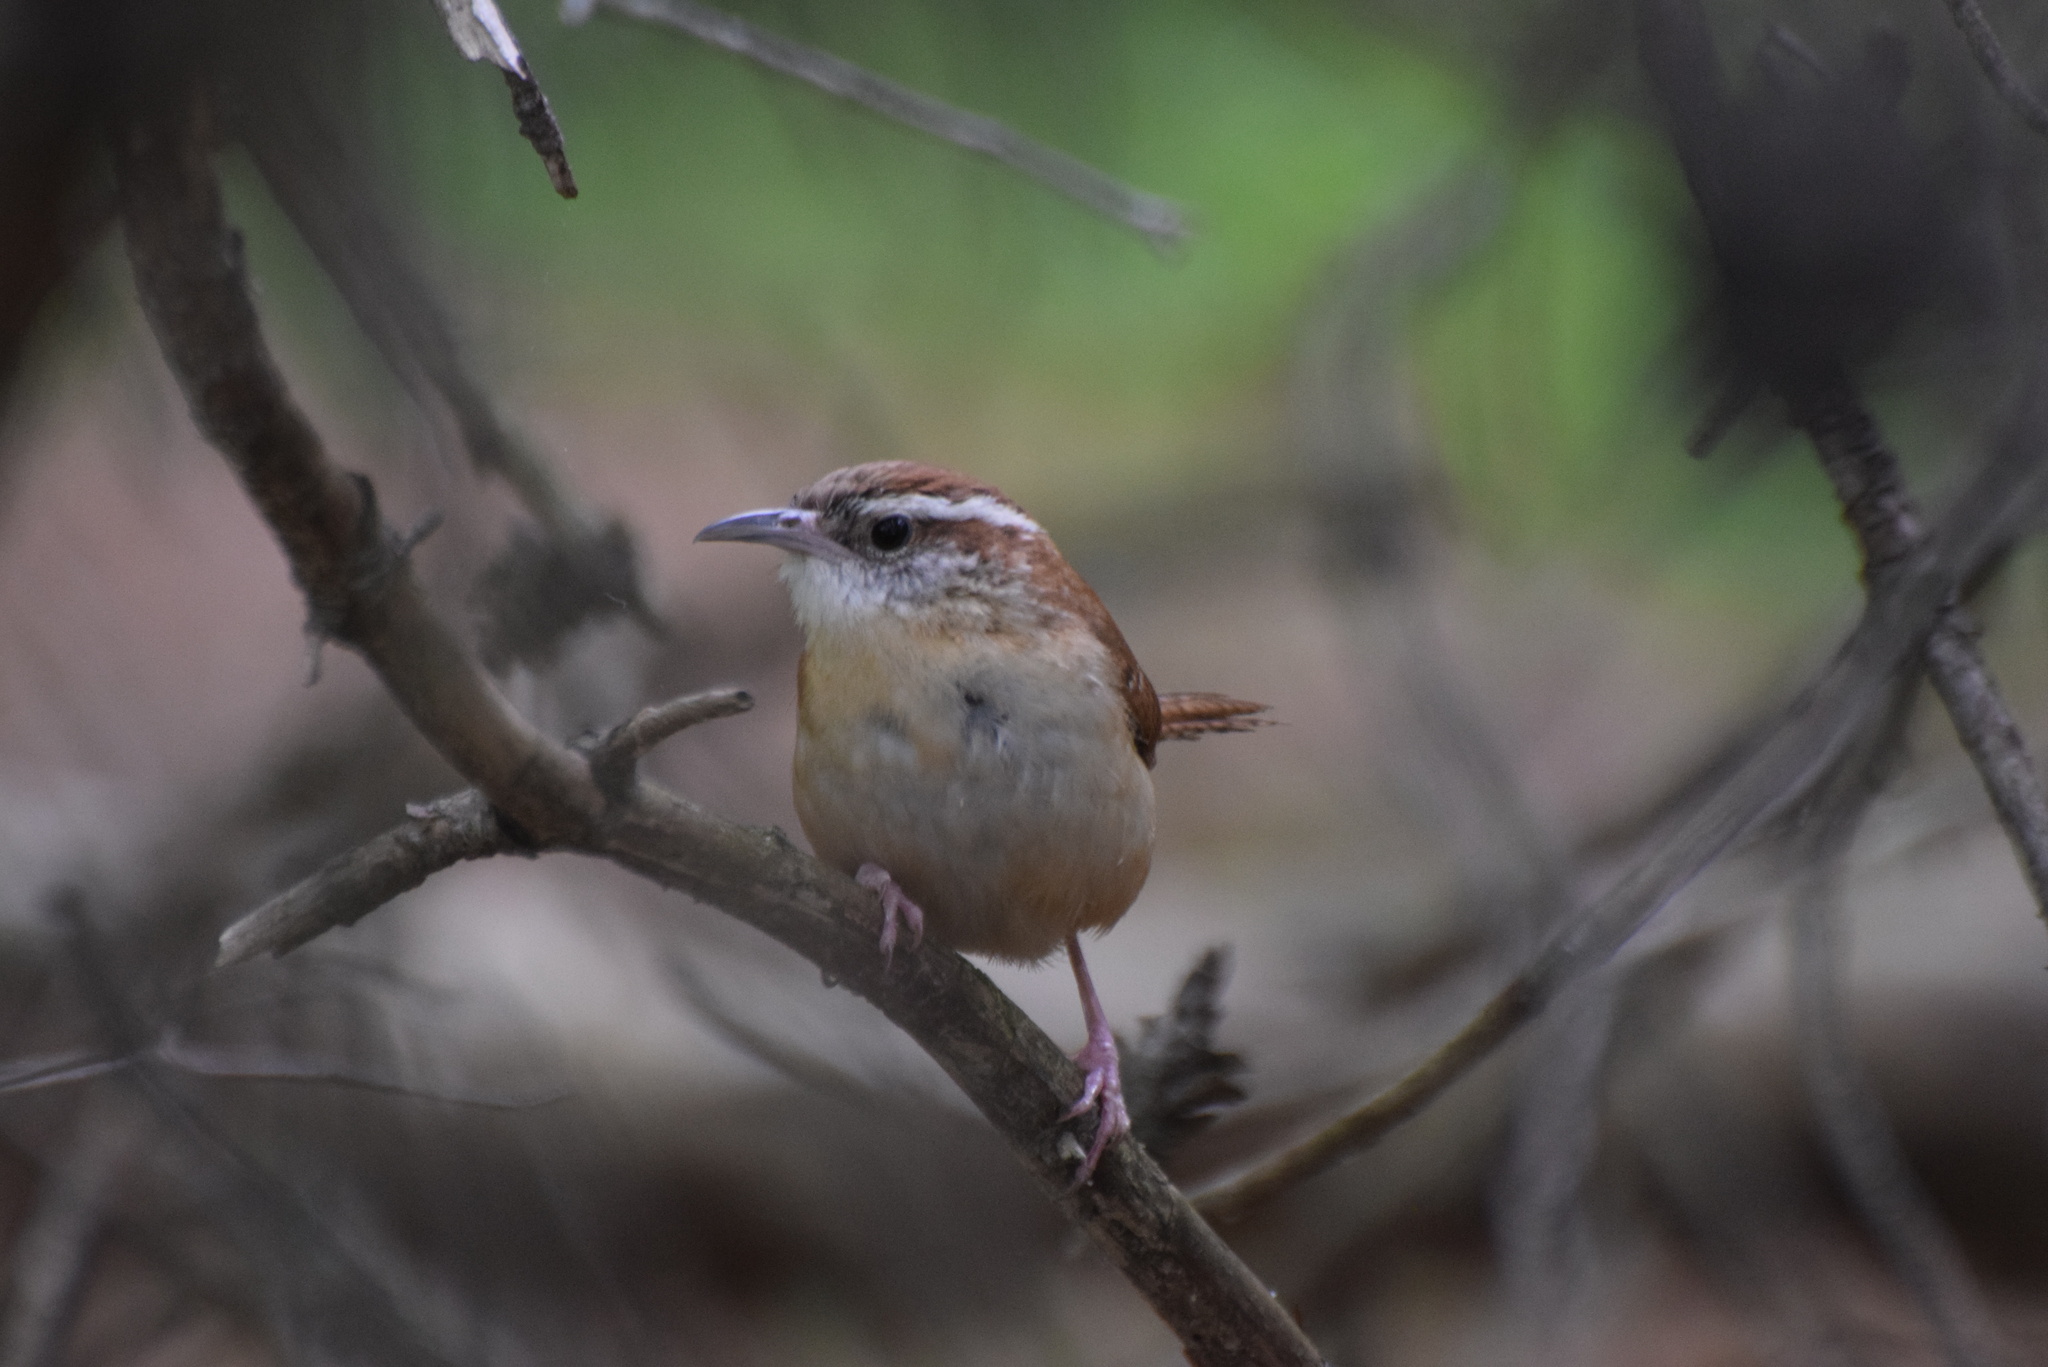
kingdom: Animalia
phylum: Chordata
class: Aves
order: Passeriformes
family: Troglodytidae
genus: Thryothorus
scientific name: Thryothorus ludovicianus
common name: Carolina wren
